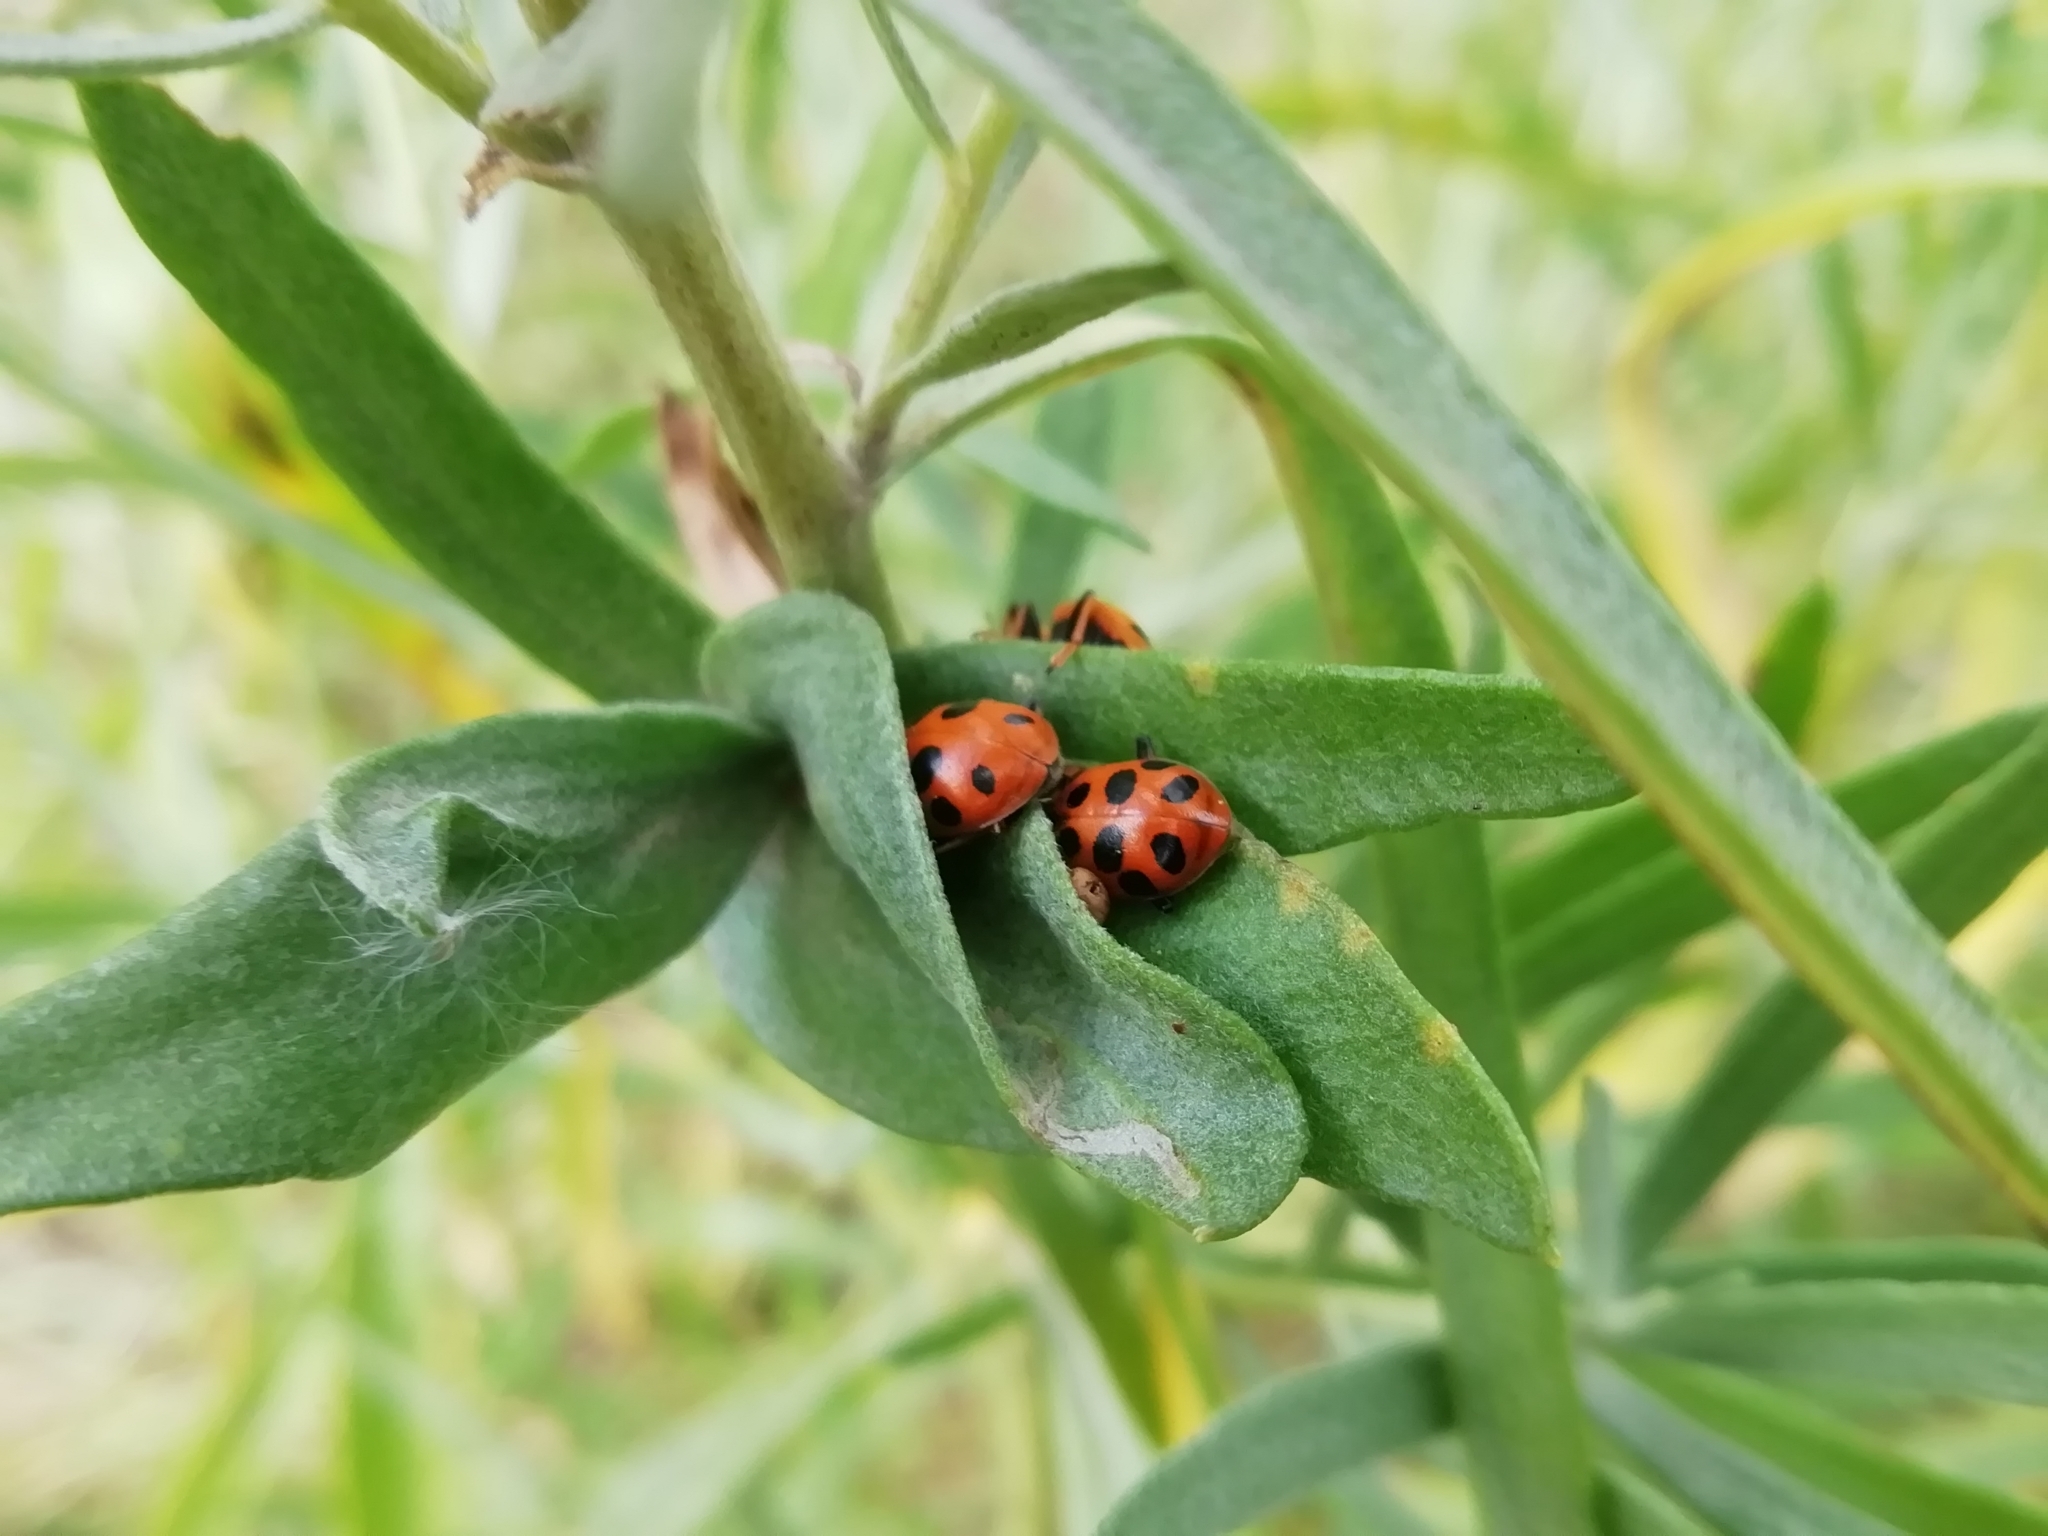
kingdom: Animalia
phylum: Arthropoda
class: Insecta
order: Coleoptera
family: Coccinellidae
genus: Hippodamia
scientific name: Hippodamia tredecimpunctata
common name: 13-spot ladybird
